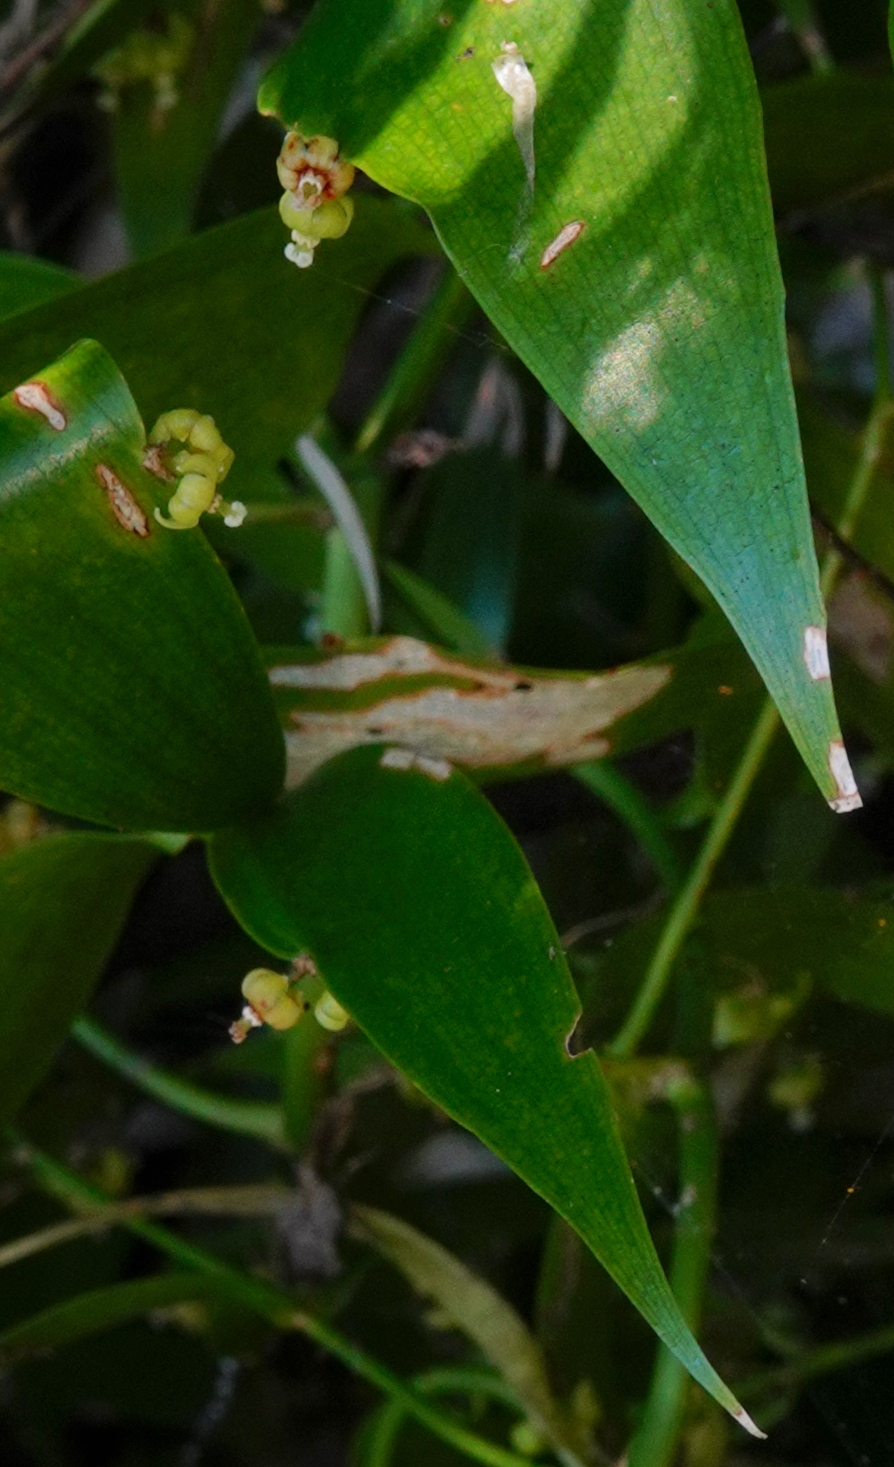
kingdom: Plantae
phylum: Tracheophyta
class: Liliopsida
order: Asparagales
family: Asparagaceae
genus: Semele
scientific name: Semele androgyna
